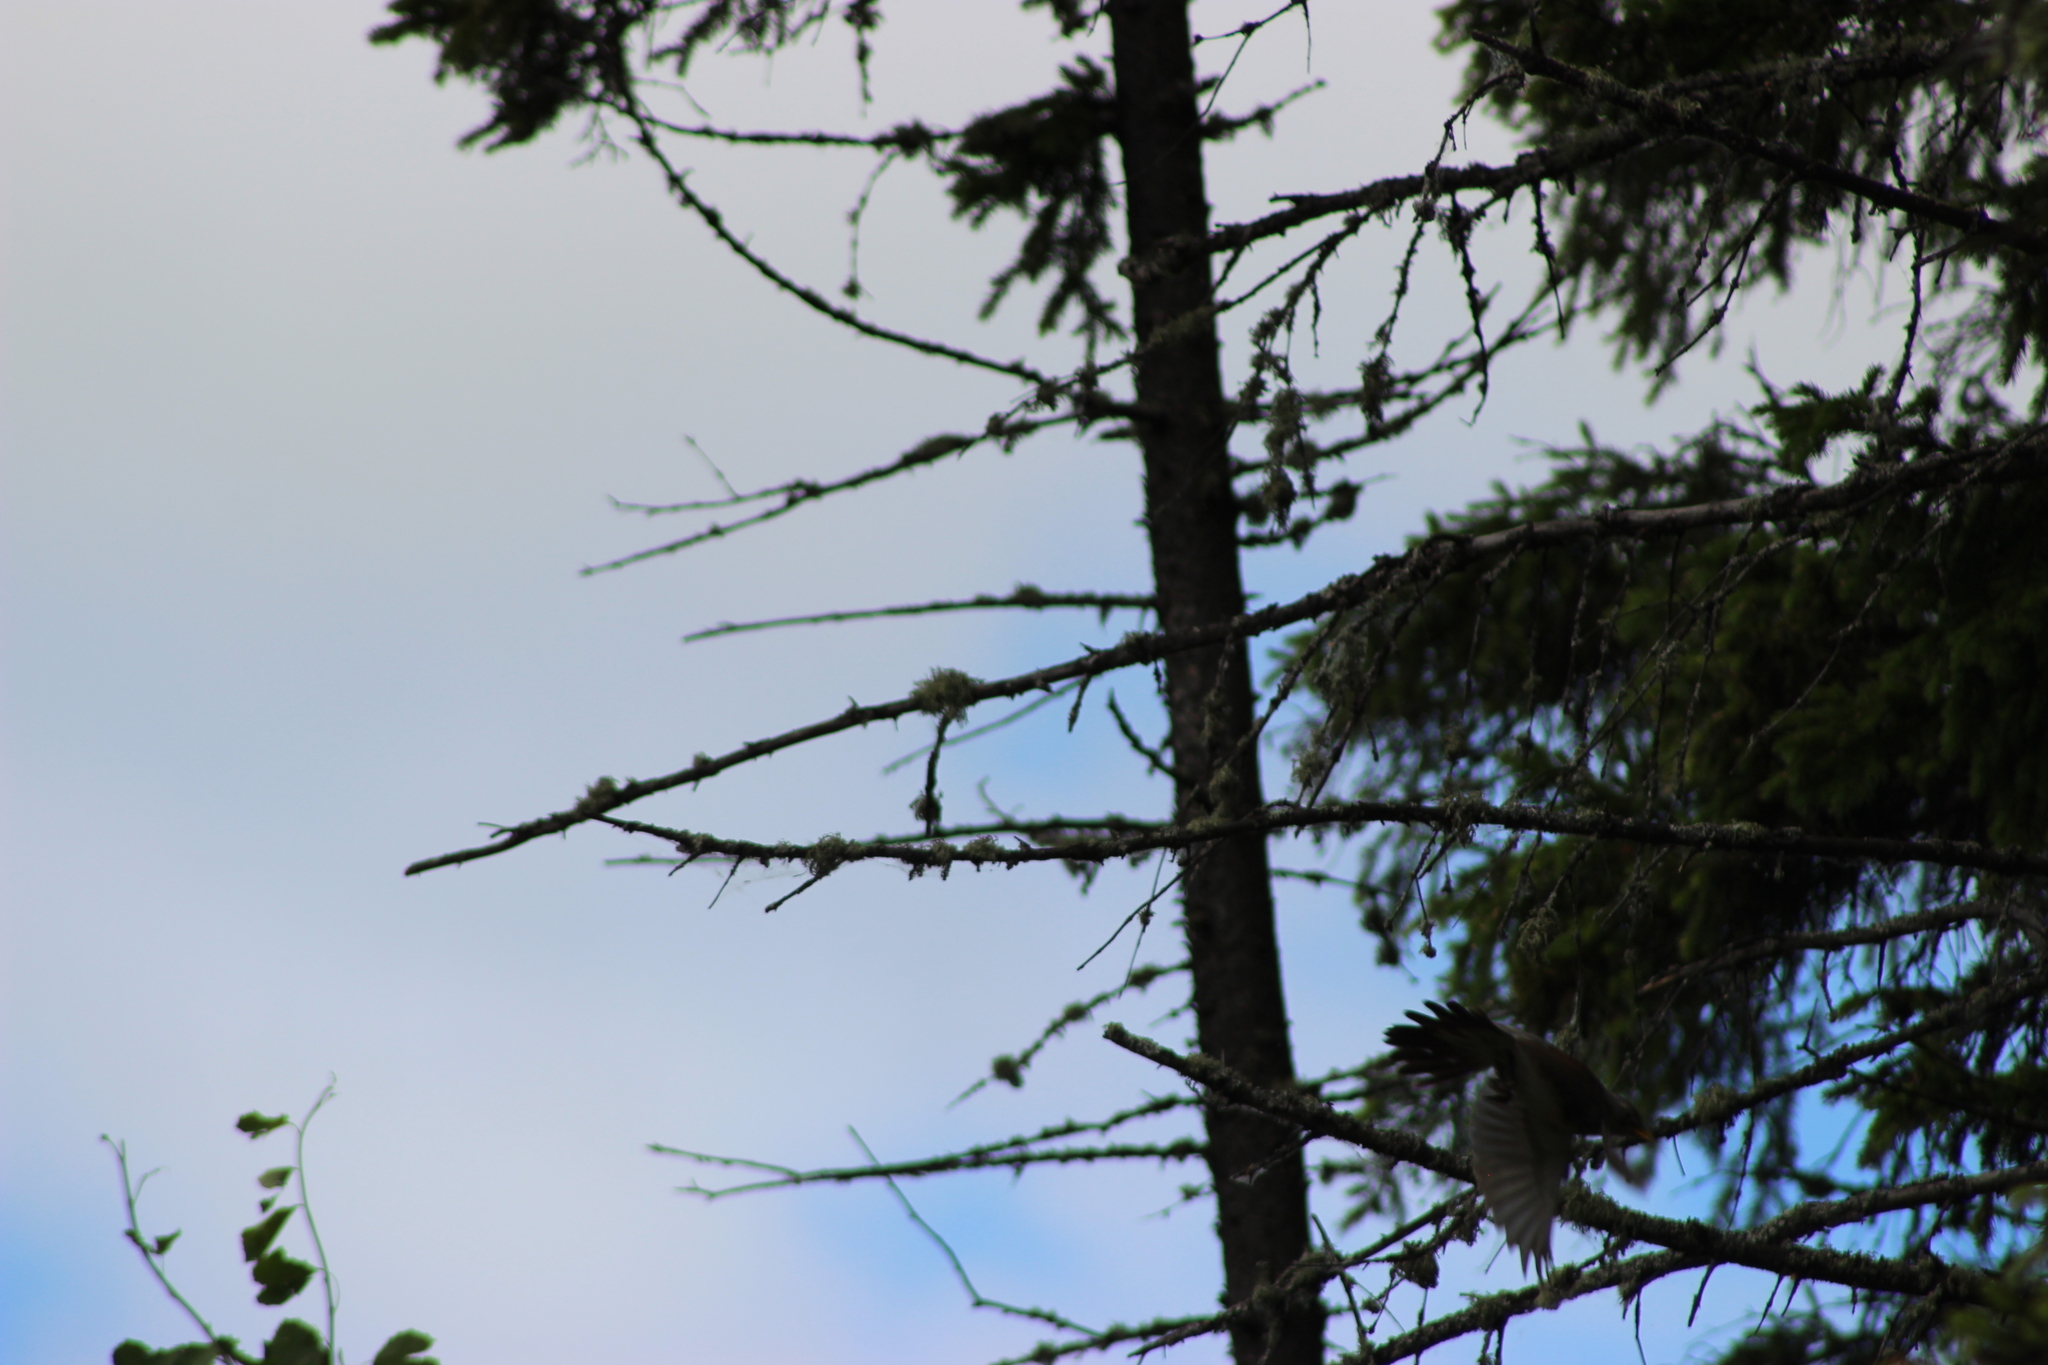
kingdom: Animalia
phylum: Chordata
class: Aves
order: Passeriformes
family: Turdidae
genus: Turdus
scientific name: Turdus pilaris
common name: Fieldfare
